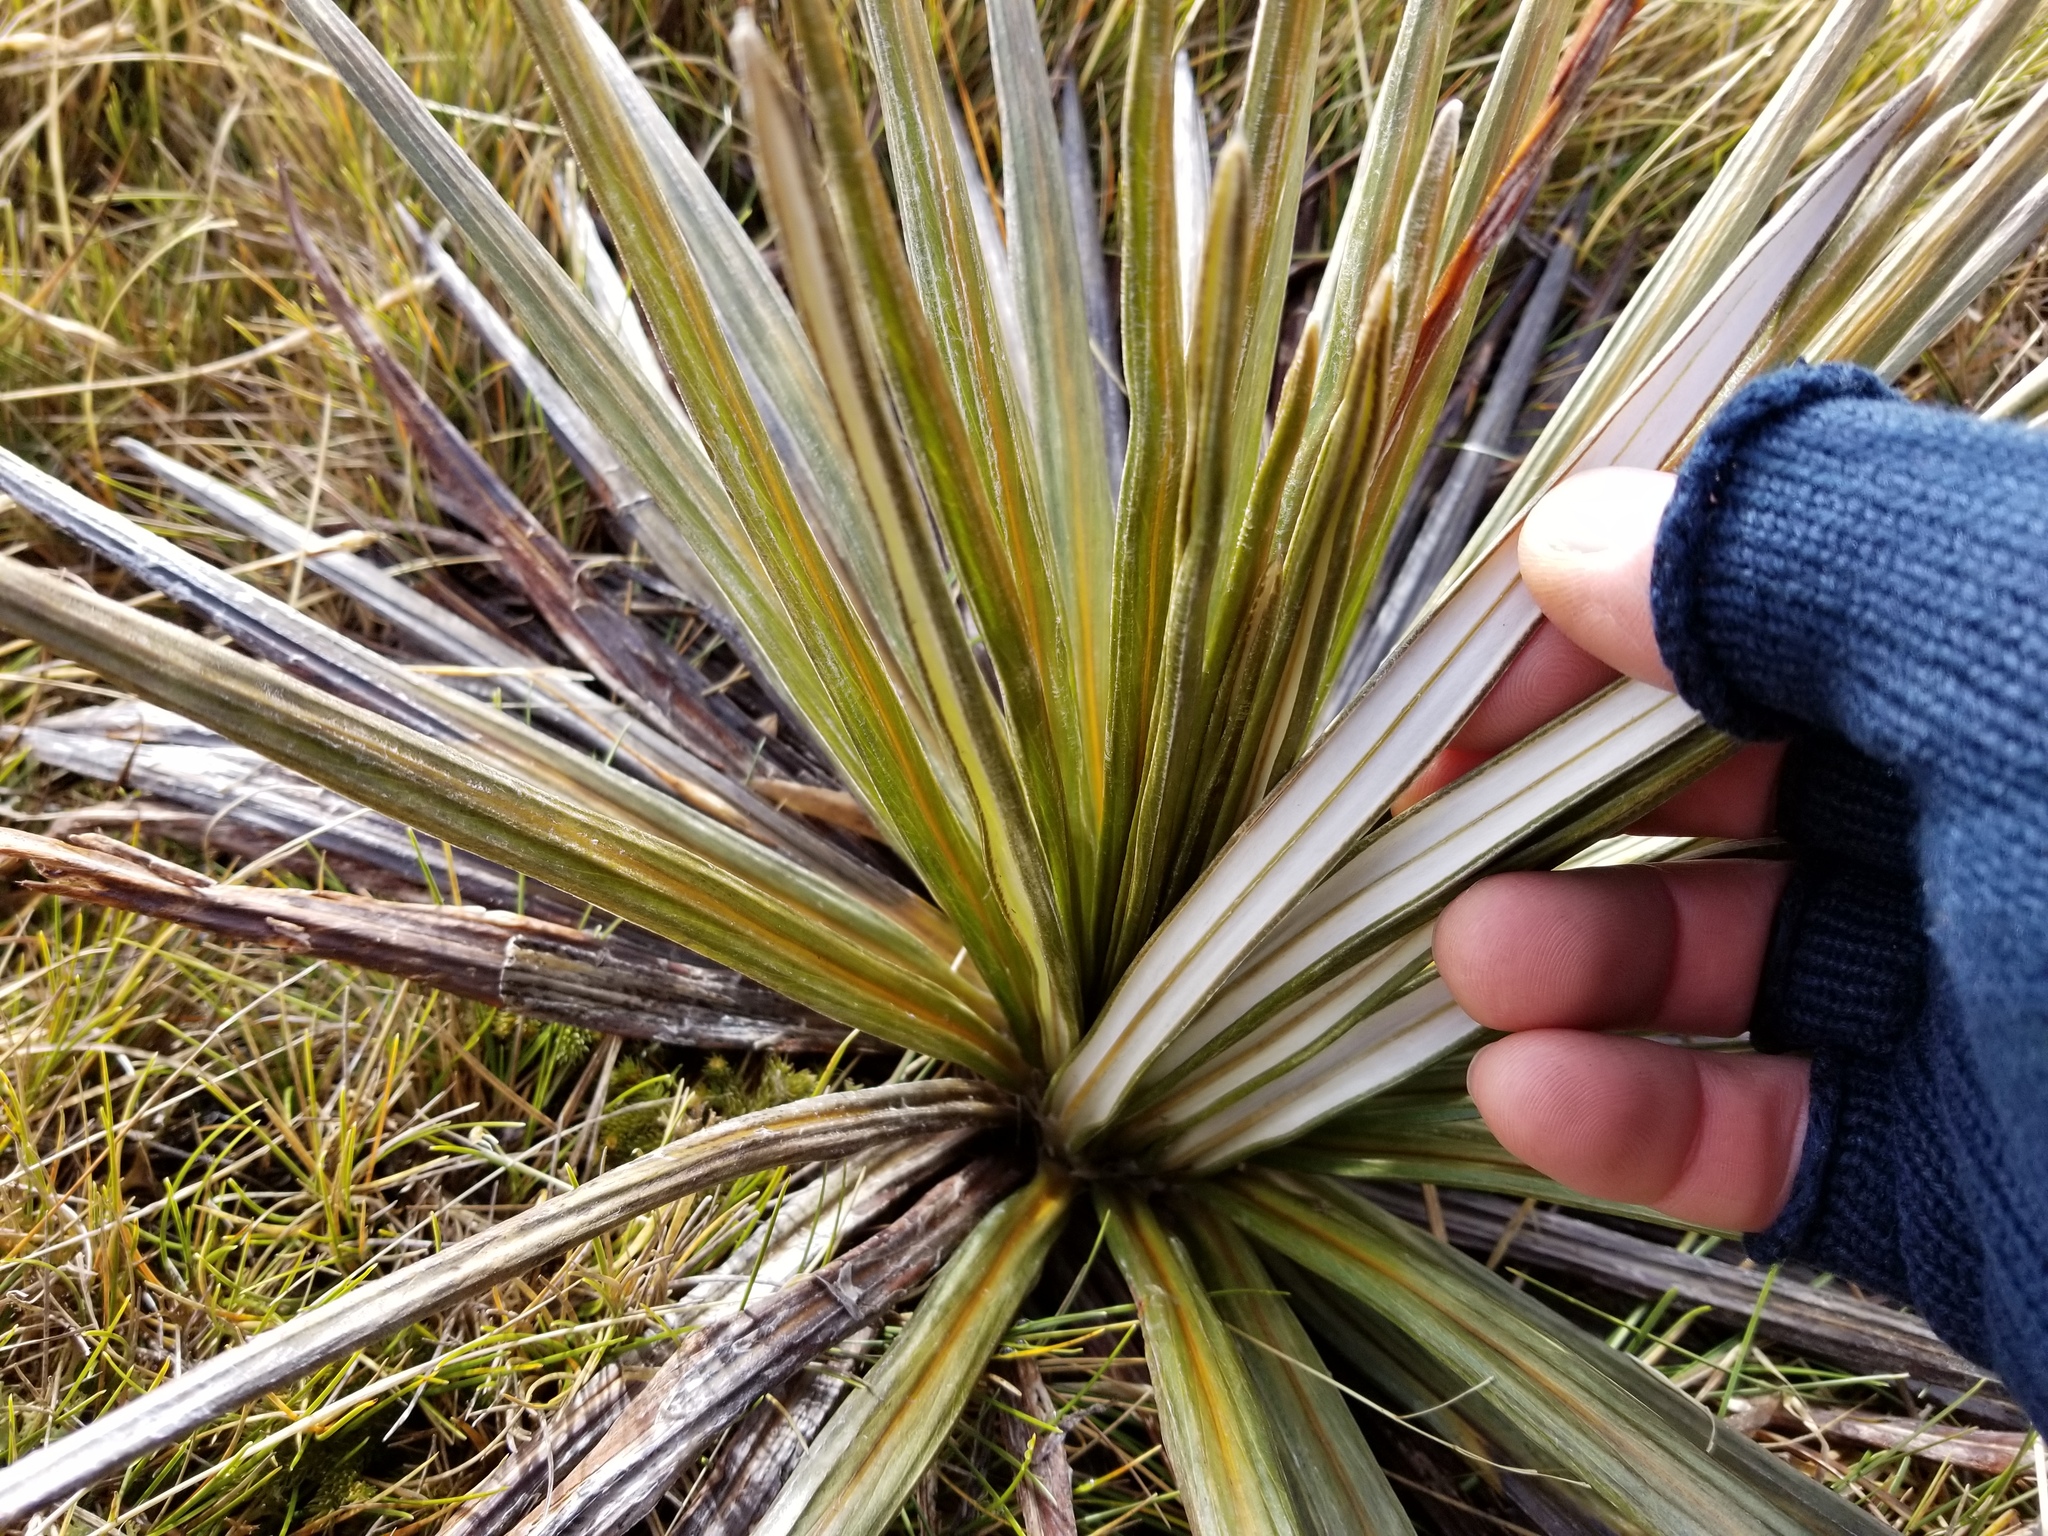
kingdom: Plantae
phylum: Tracheophyta
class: Magnoliopsida
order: Asterales
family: Asteraceae
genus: Celmisia
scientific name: Celmisia armstrongii
